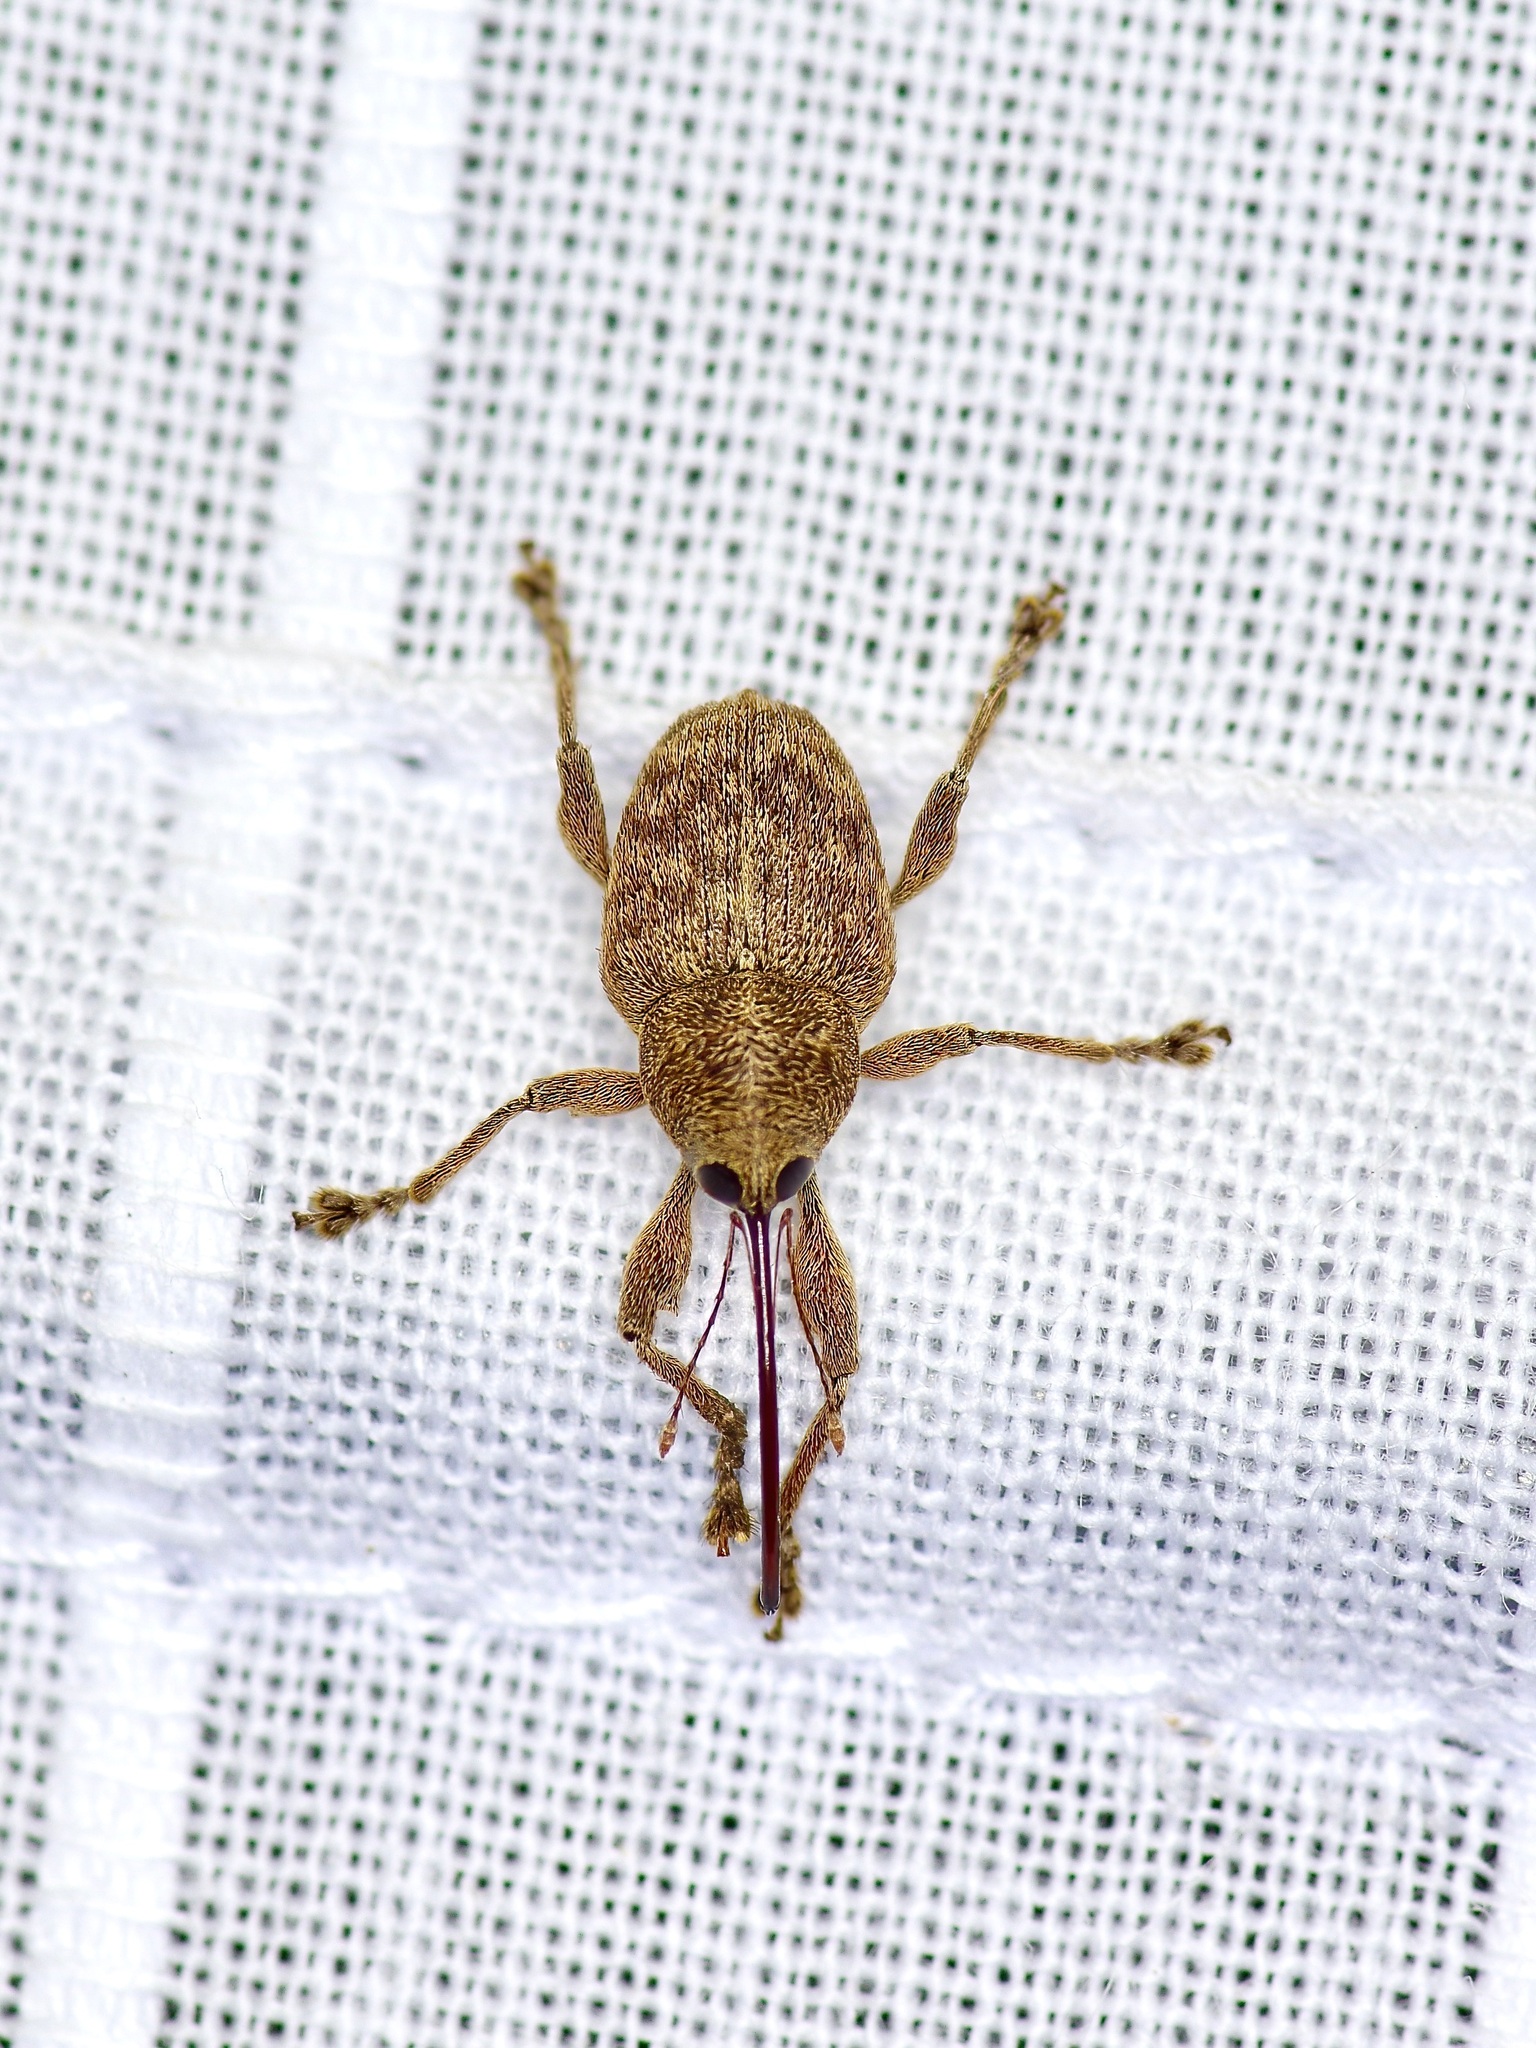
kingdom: Animalia
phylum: Arthropoda
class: Insecta
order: Coleoptera
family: Curculionidae
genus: Curculio
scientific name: Curculio
